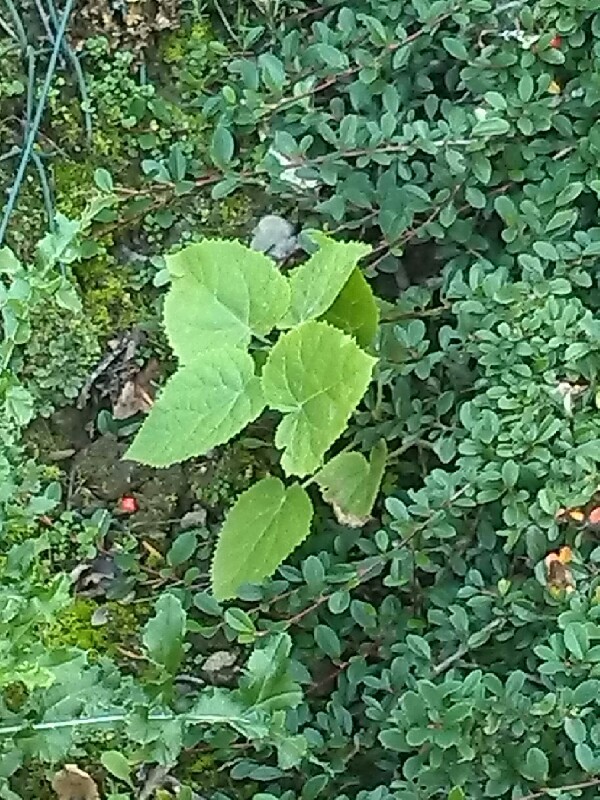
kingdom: Plantae
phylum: Tracheophyta
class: Magnoliopsida
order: Lamiales
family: Paulowniaceae
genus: Paulownia
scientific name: Paulownia tomentosa
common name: Foxglove-tree
